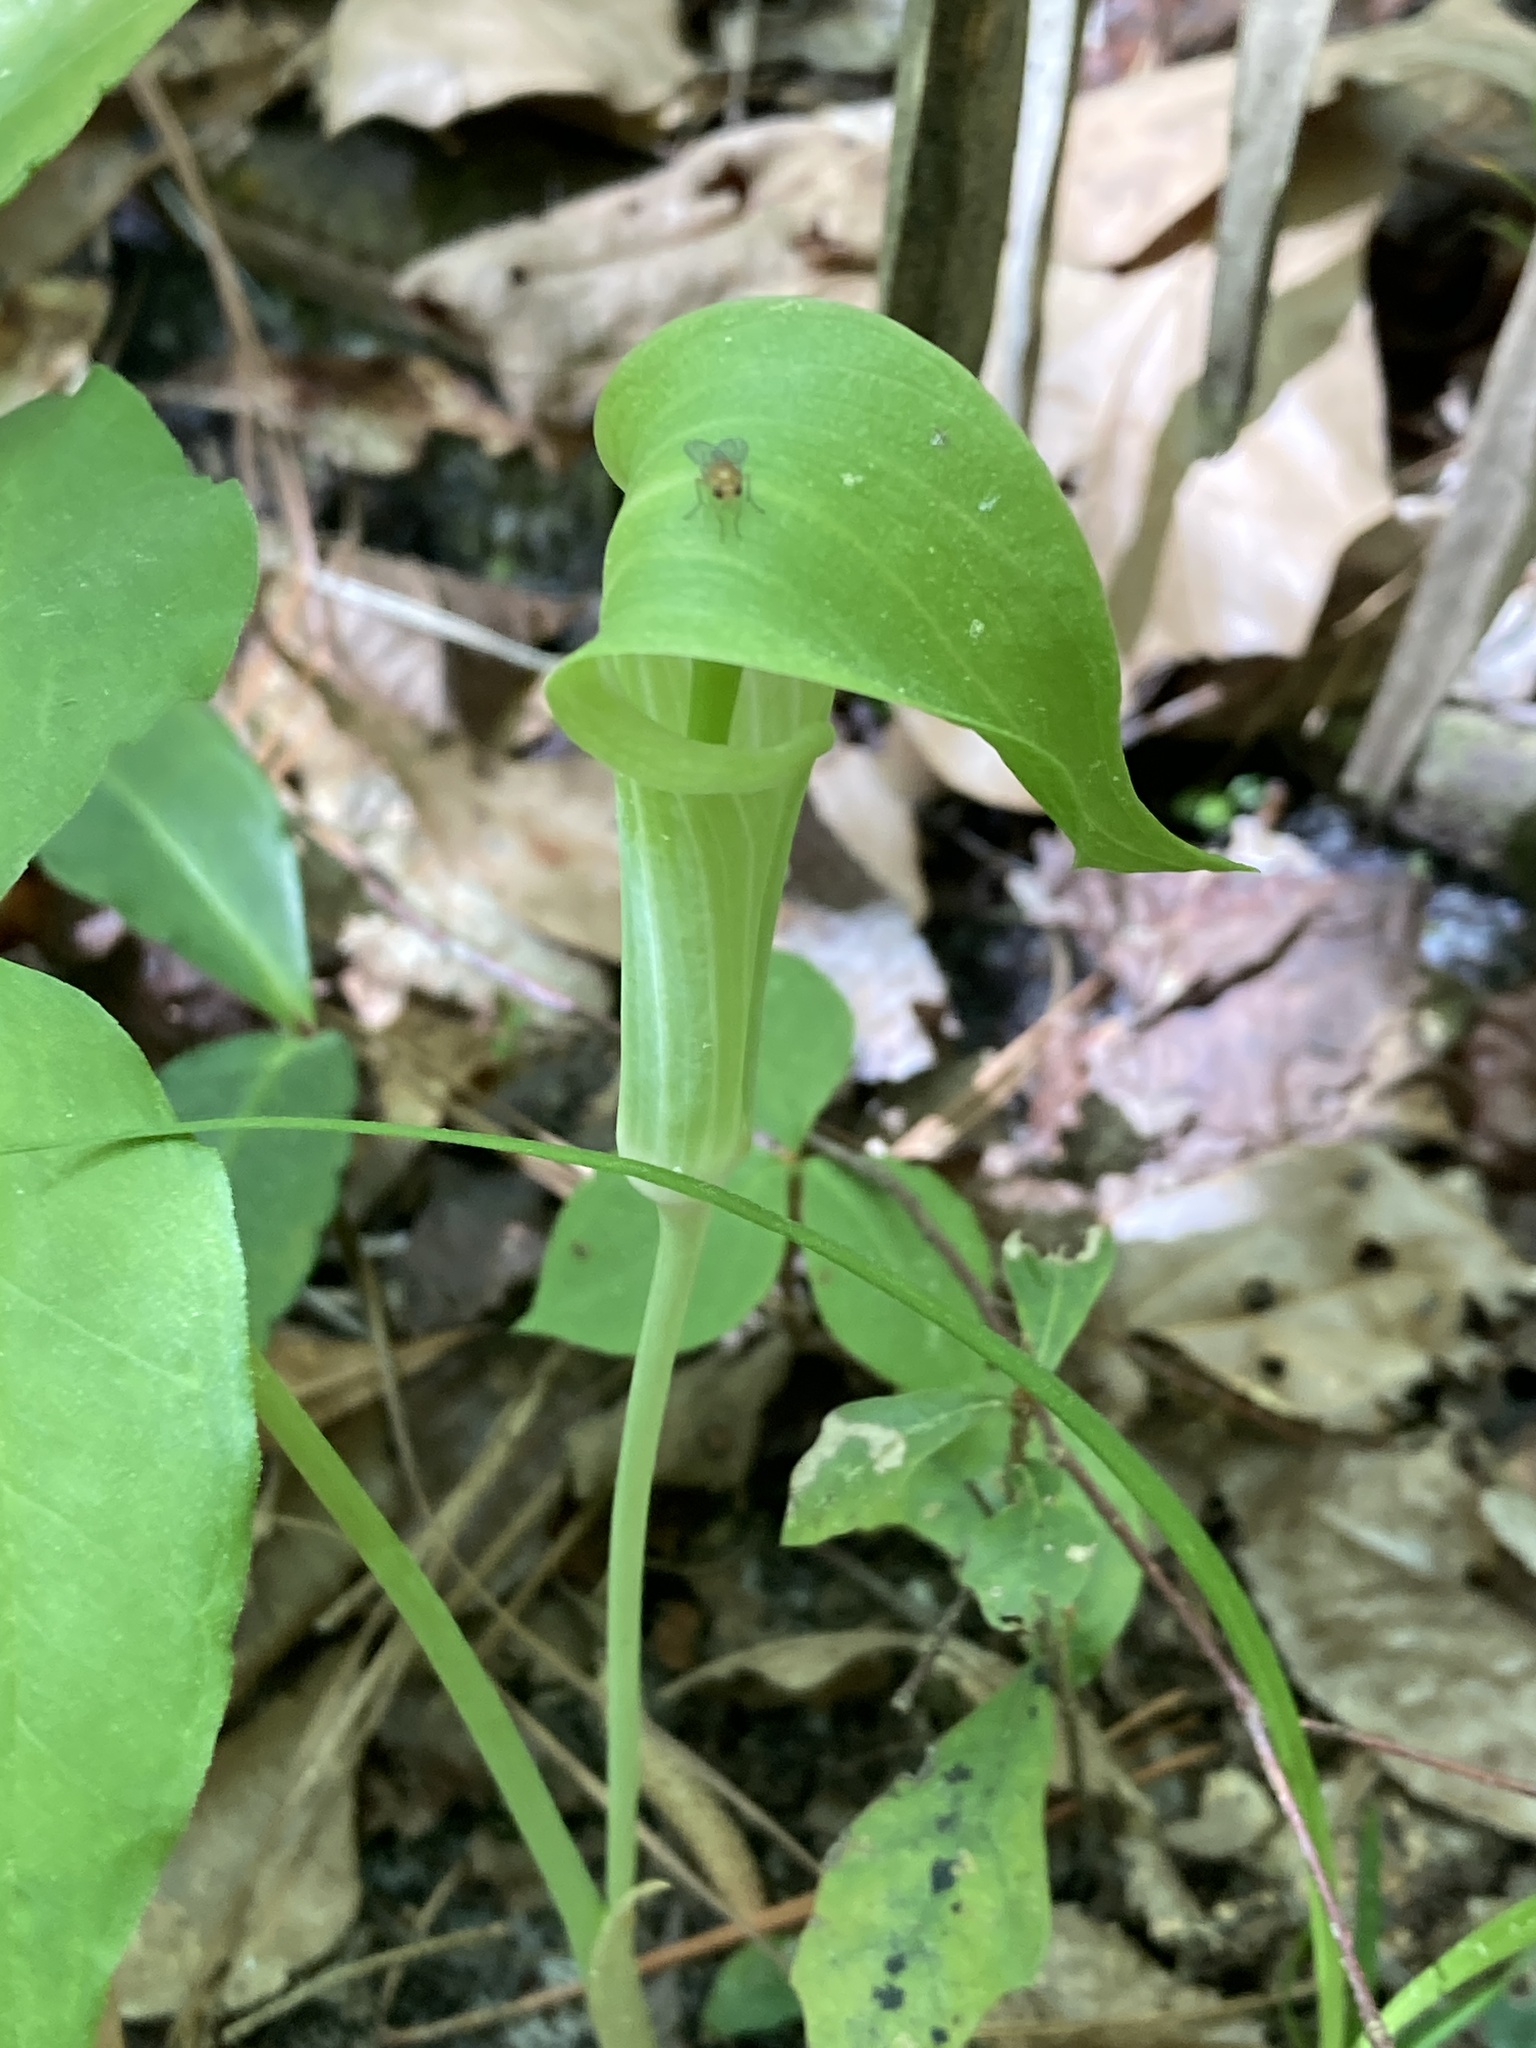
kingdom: Plantae
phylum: Tracheophyta
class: Liliopsida
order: Alismatales
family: Araceae
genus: Arisaema
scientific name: Arisaema acuminatum
